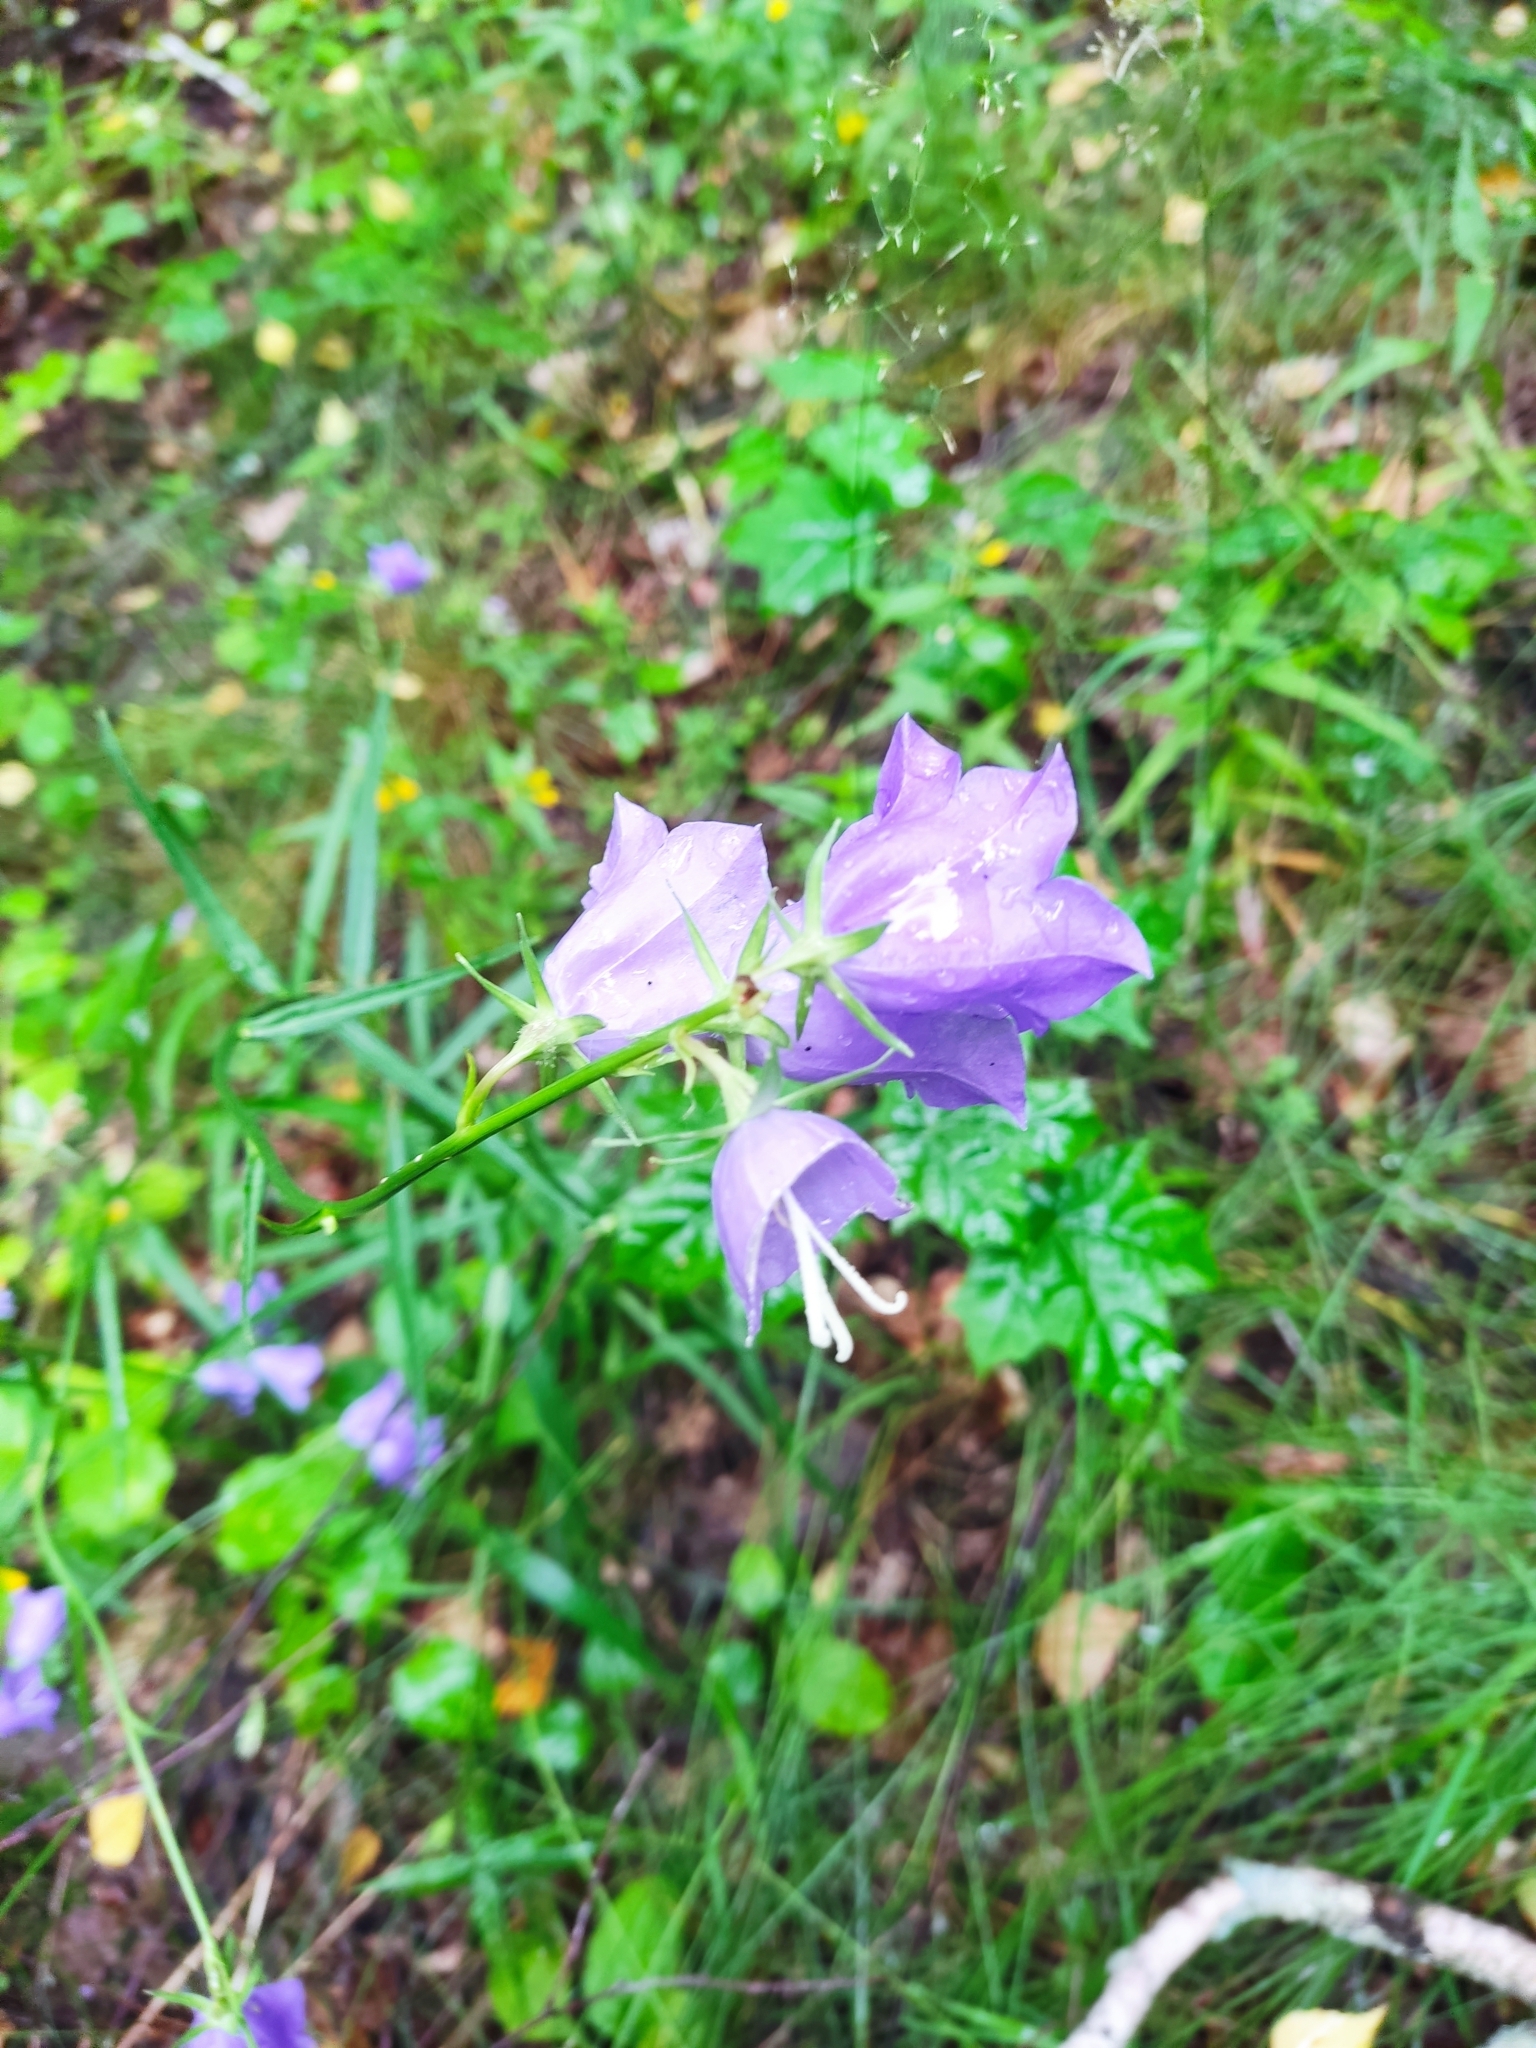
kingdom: Plantae
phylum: Tracheophyta
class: Magnoliopsida
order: Asterales
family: Campanulaceae
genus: Campanula
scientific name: Campanula persicifolia
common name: Peach-leaved bellflower
